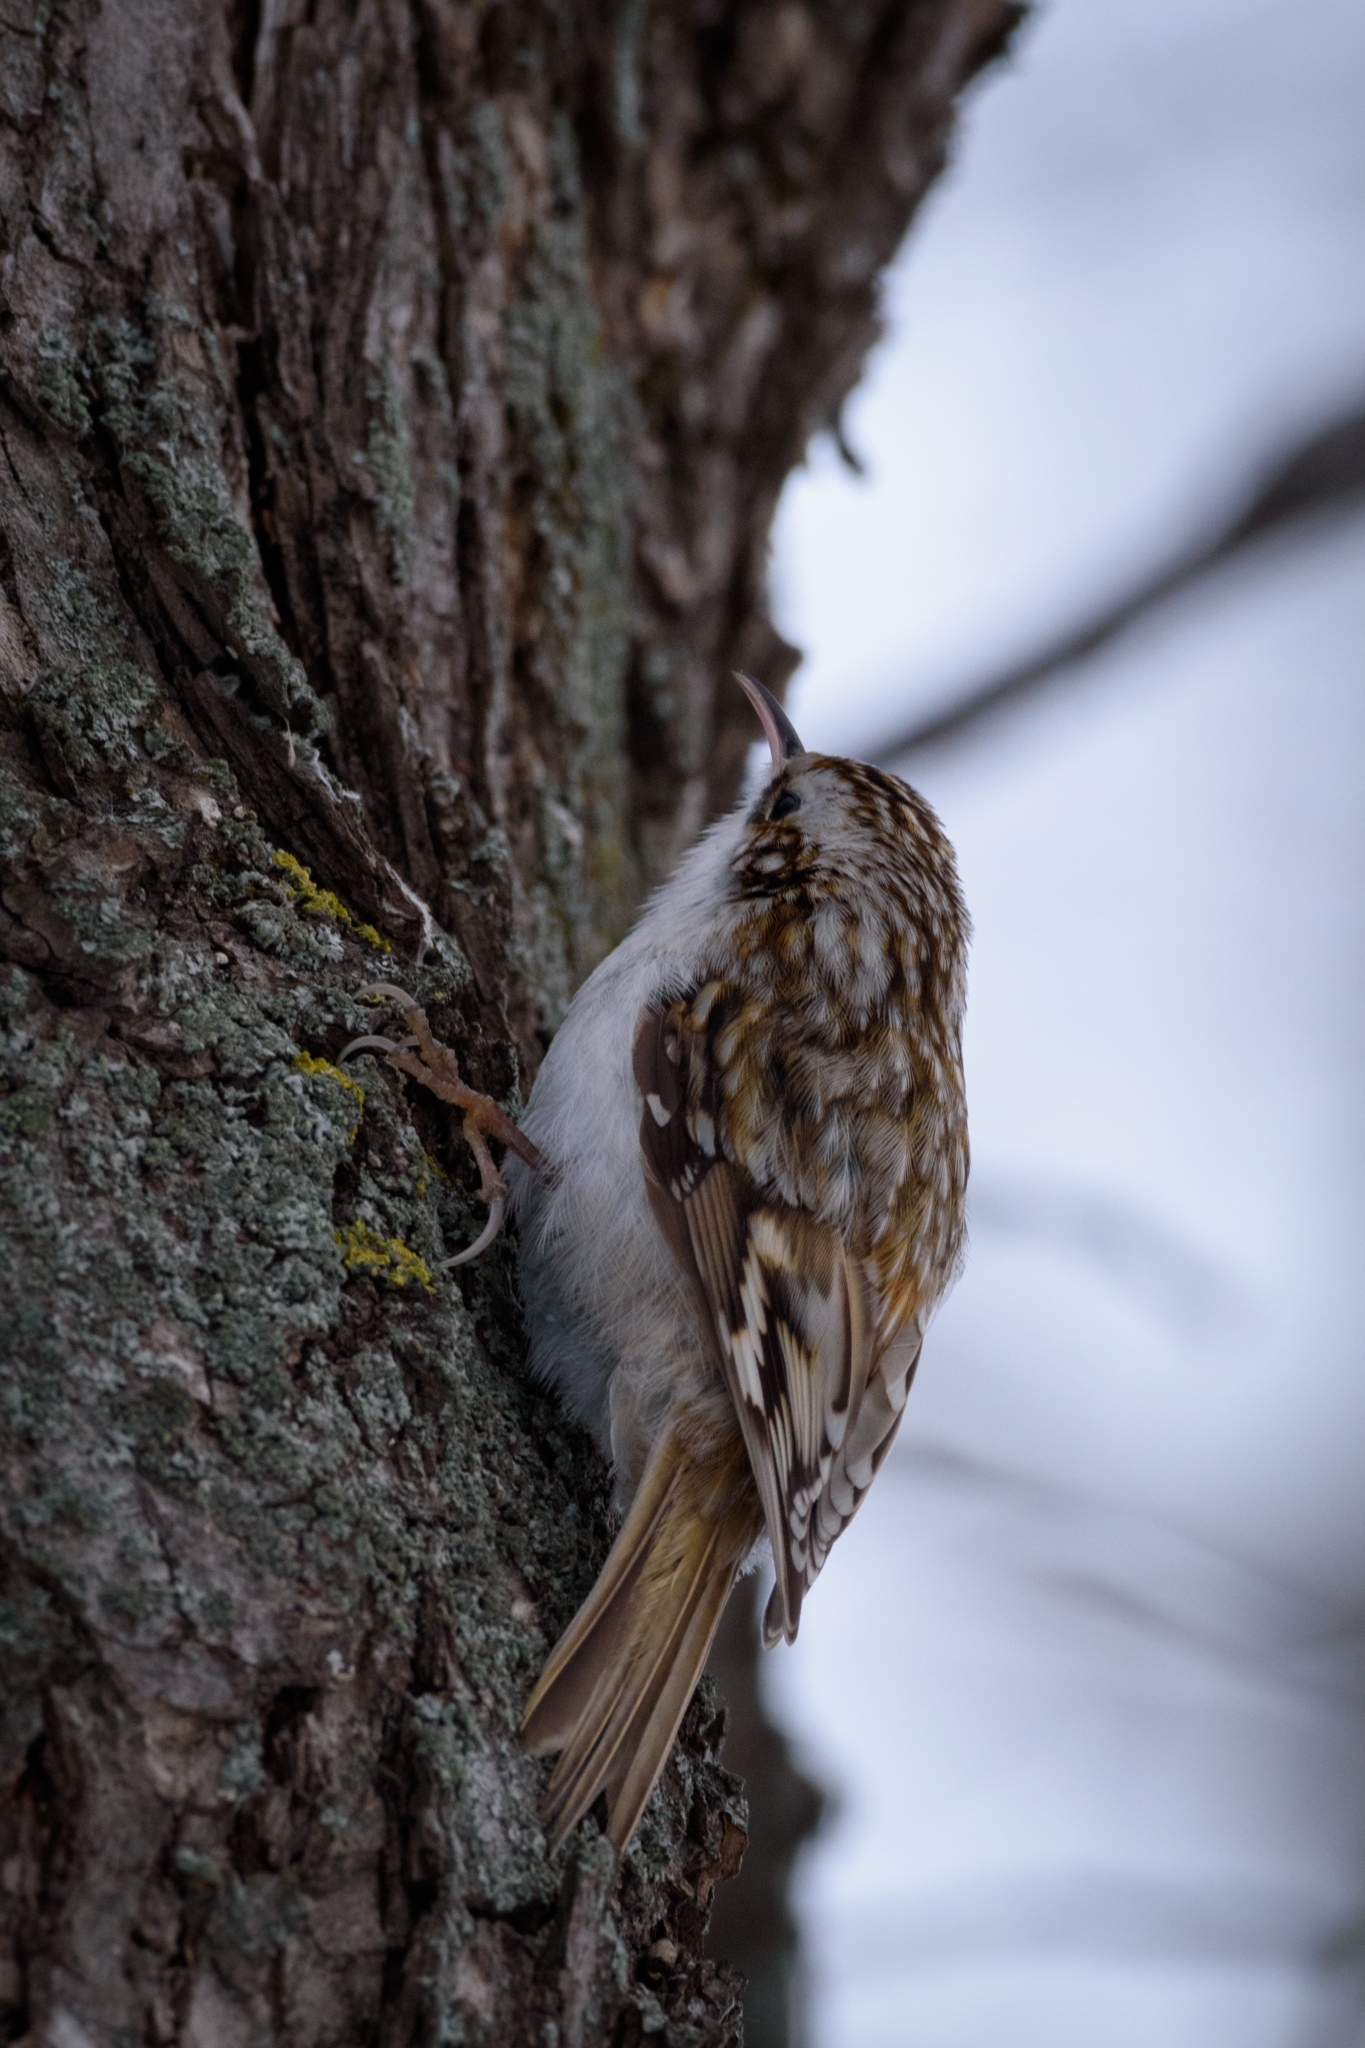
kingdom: Animalia
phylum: Chordata
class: Aves
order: Passeriformes
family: Certhiidae
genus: Certhia
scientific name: Certhia familiaris
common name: Eurasian treecreeper
